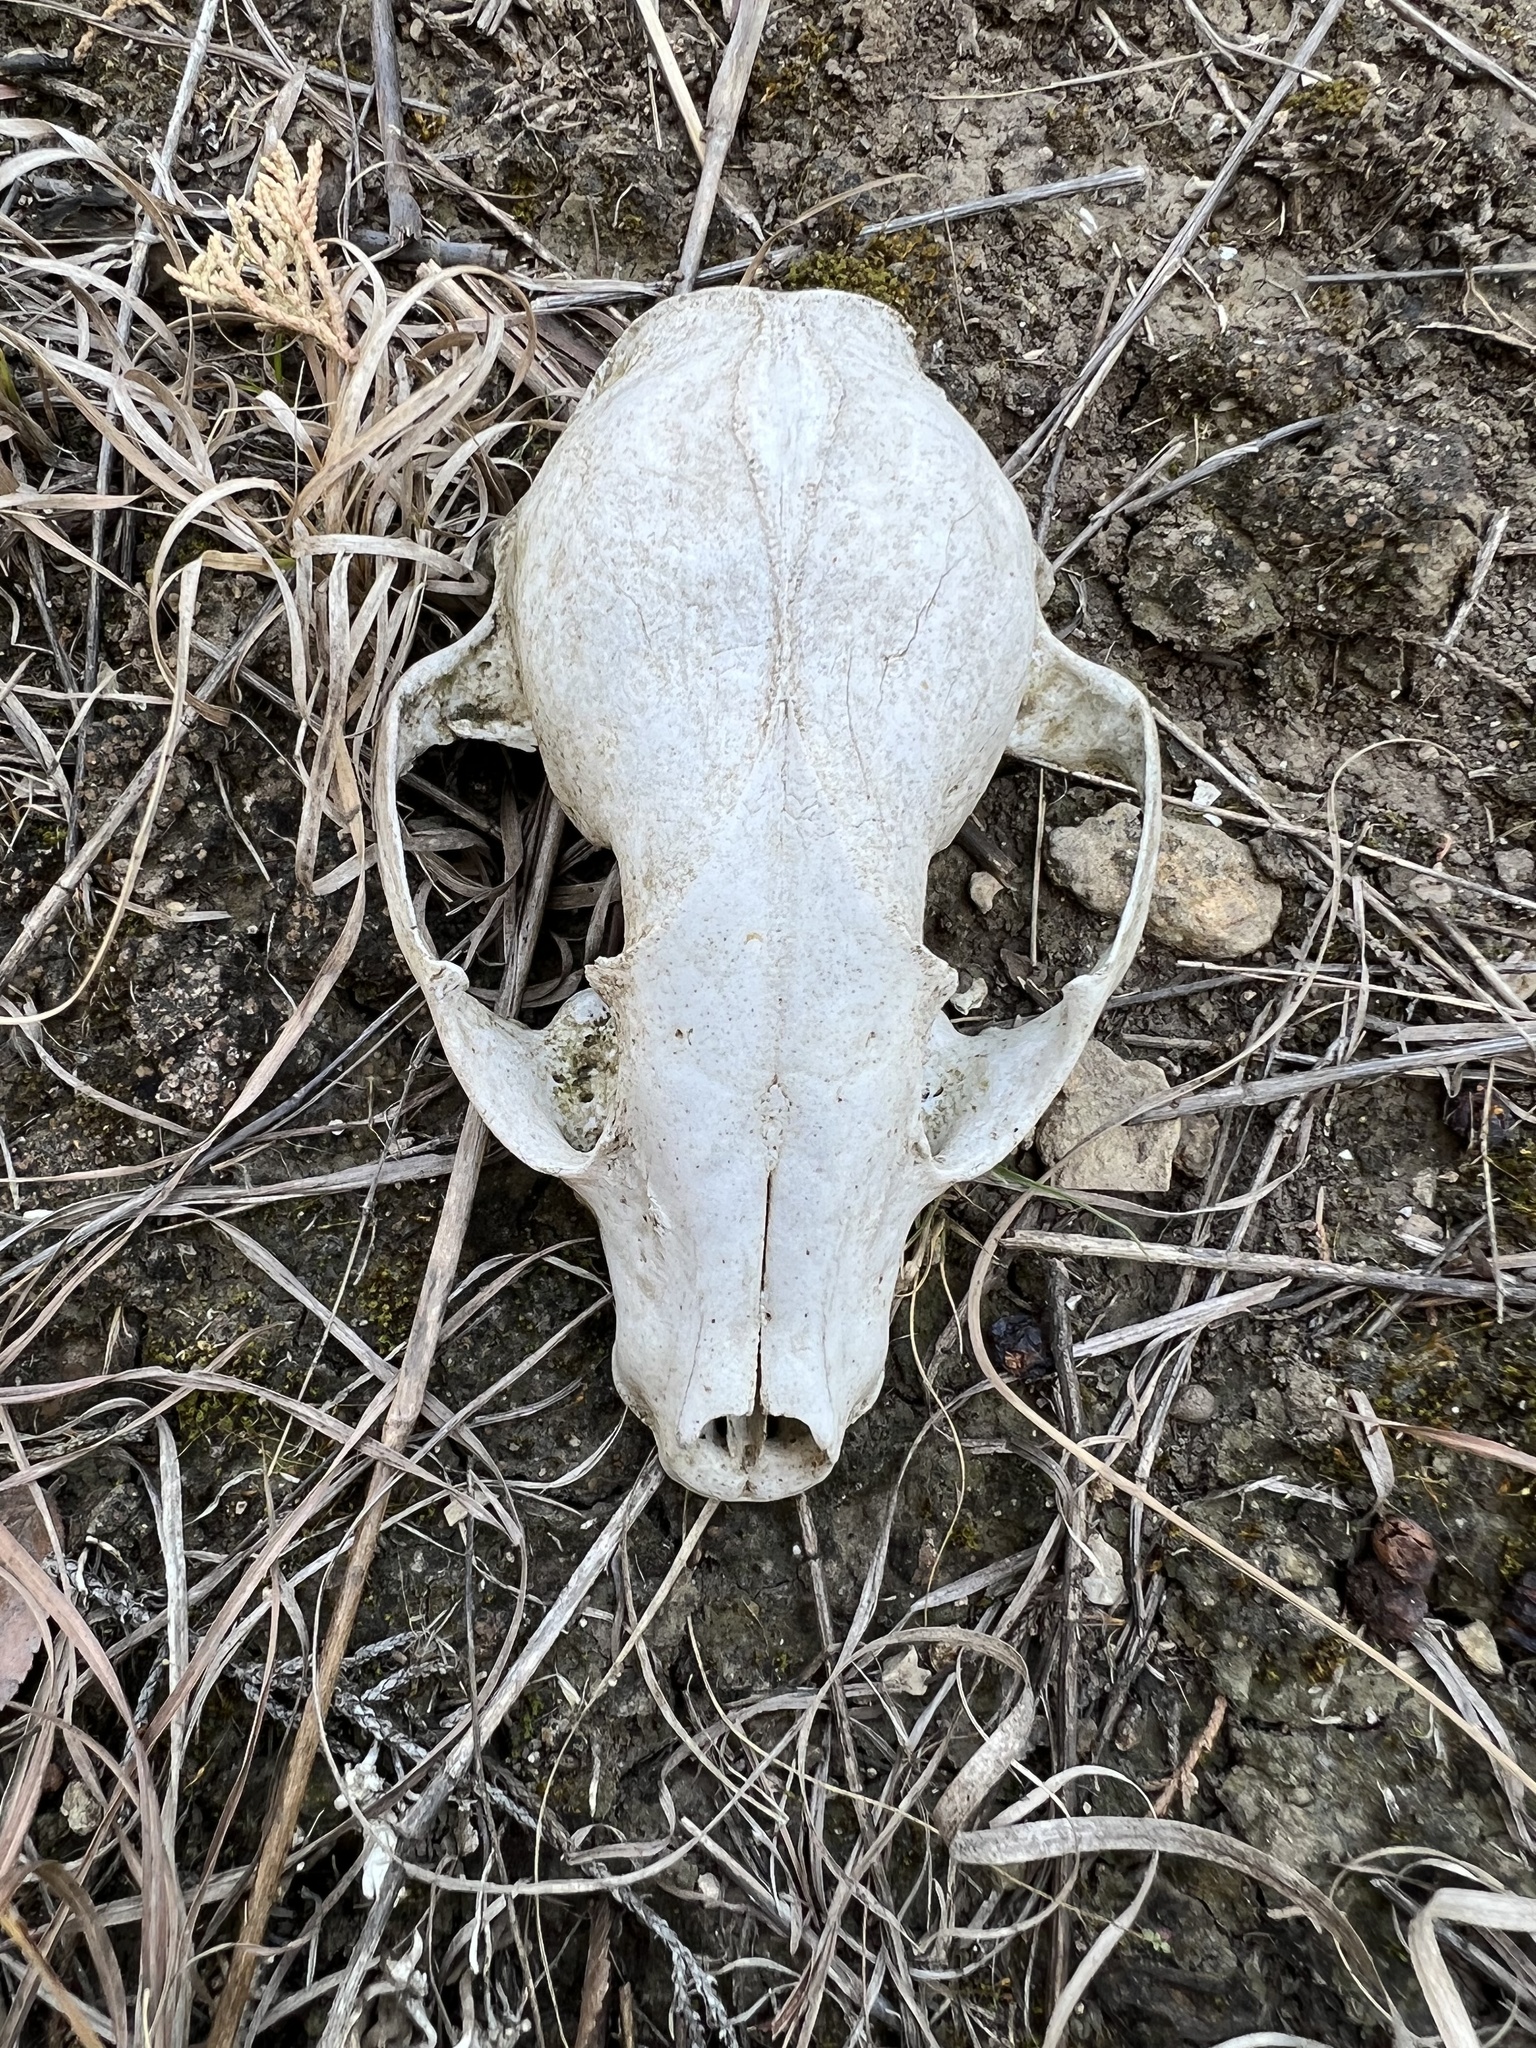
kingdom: Animalia
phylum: Chordata
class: Mammalia
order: Carnivora
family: Procyonidae
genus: Procyon
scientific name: Procyon lotor
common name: Raccoon
